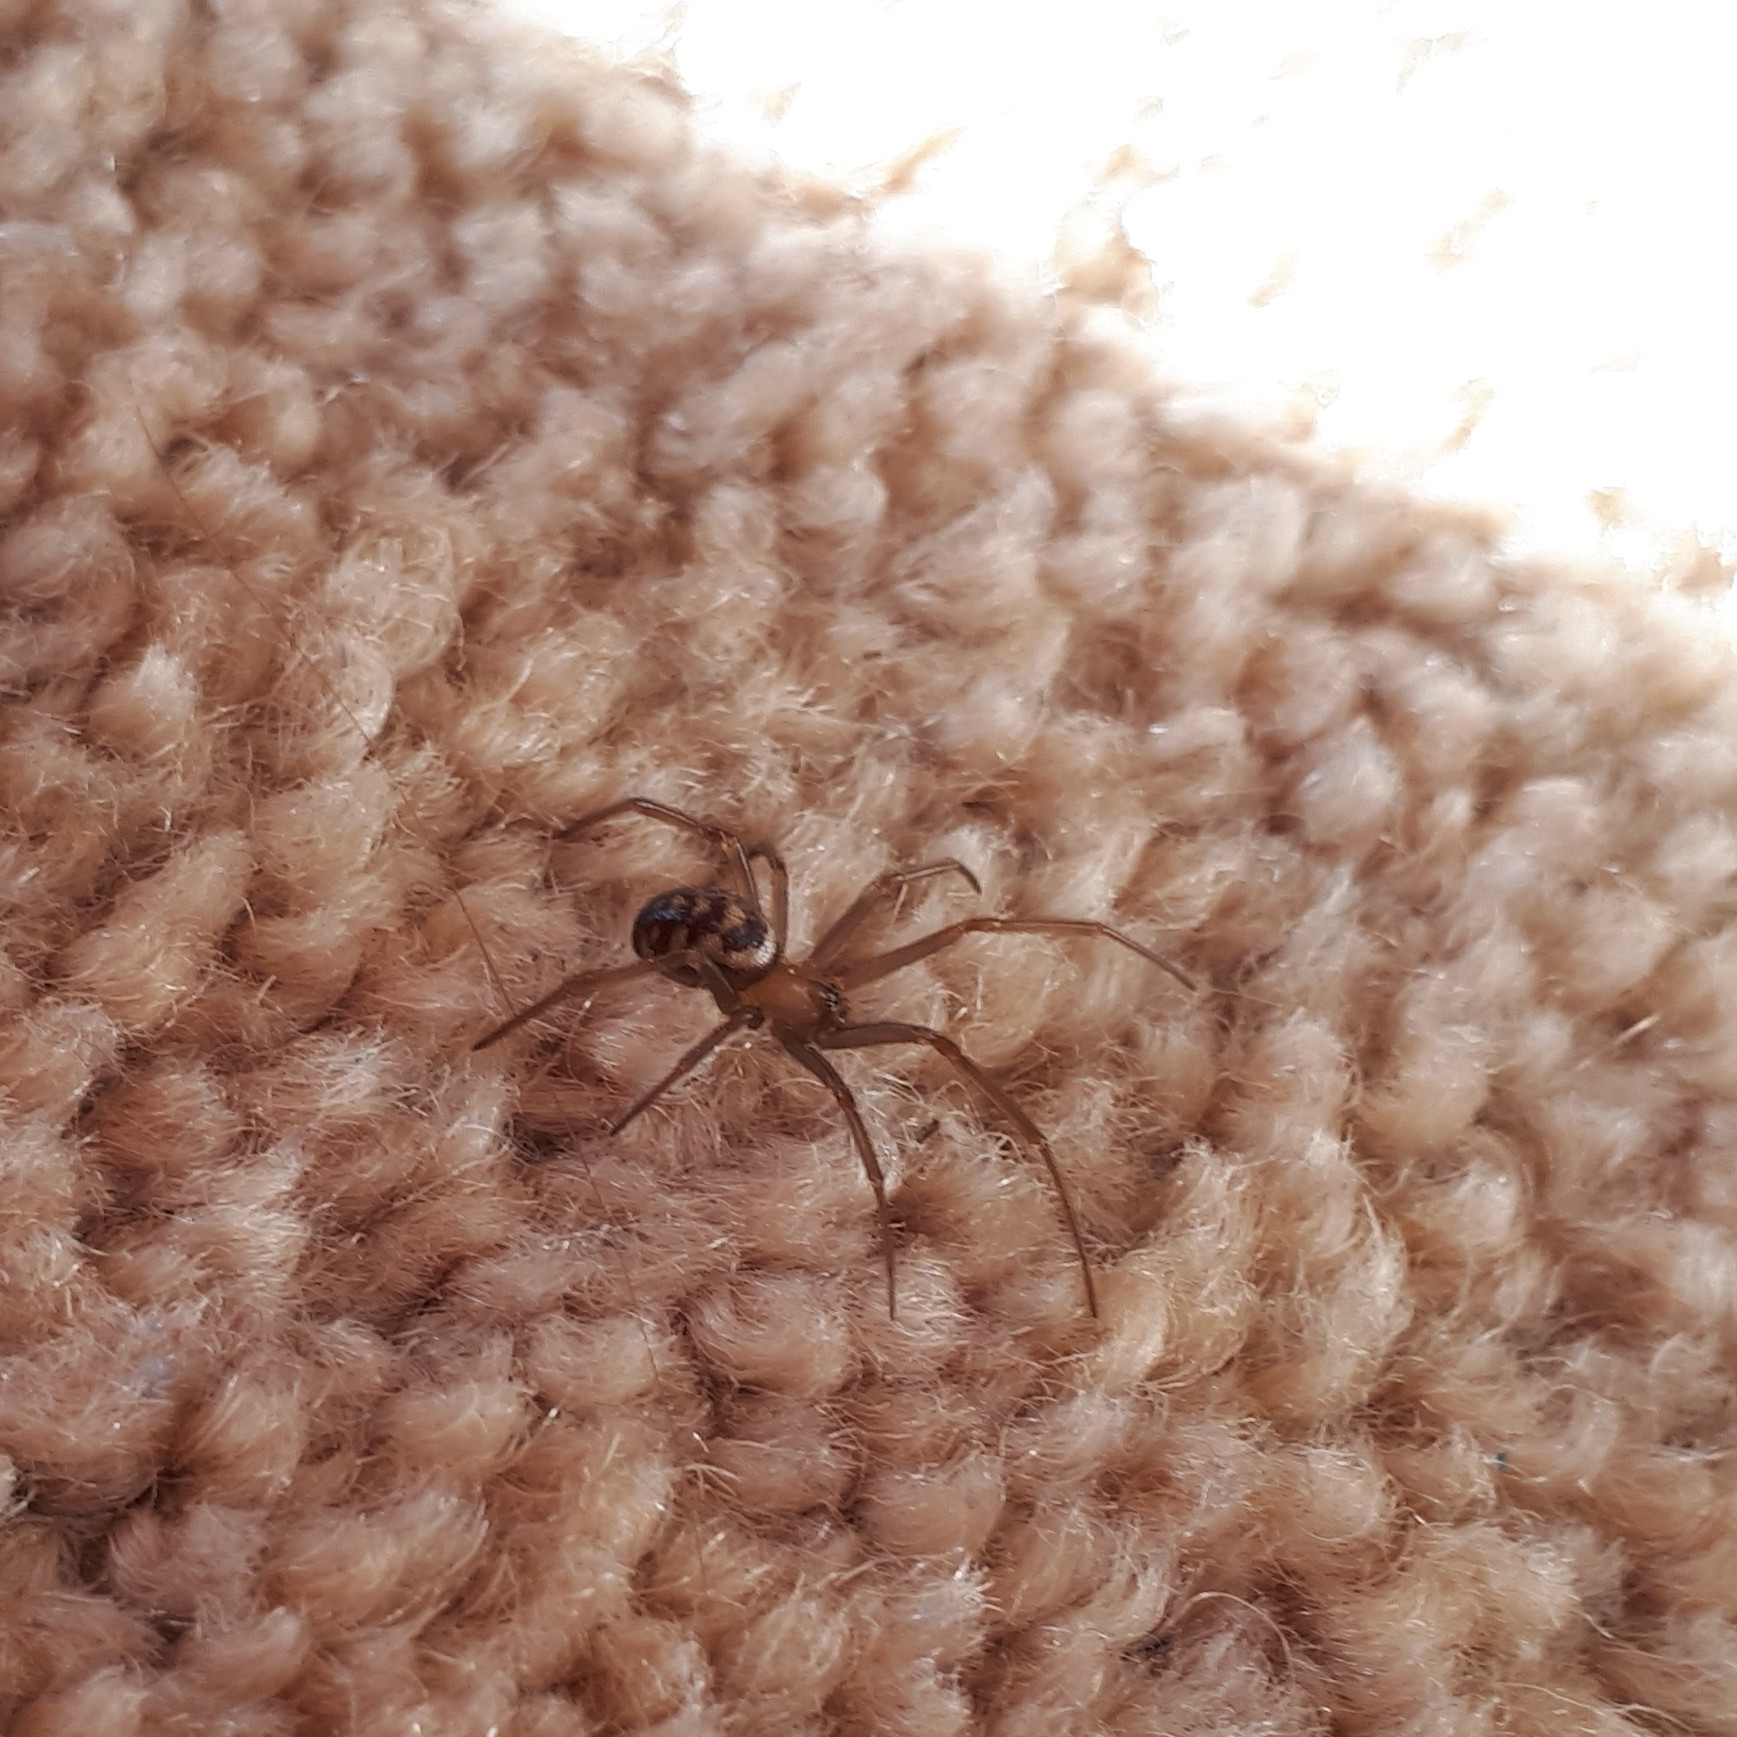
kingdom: Animalia
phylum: Arthropoda
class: Arachnida
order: Araneae
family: Theridiidae
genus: Steatoda
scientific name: Steatoda grossa
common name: False black widow
